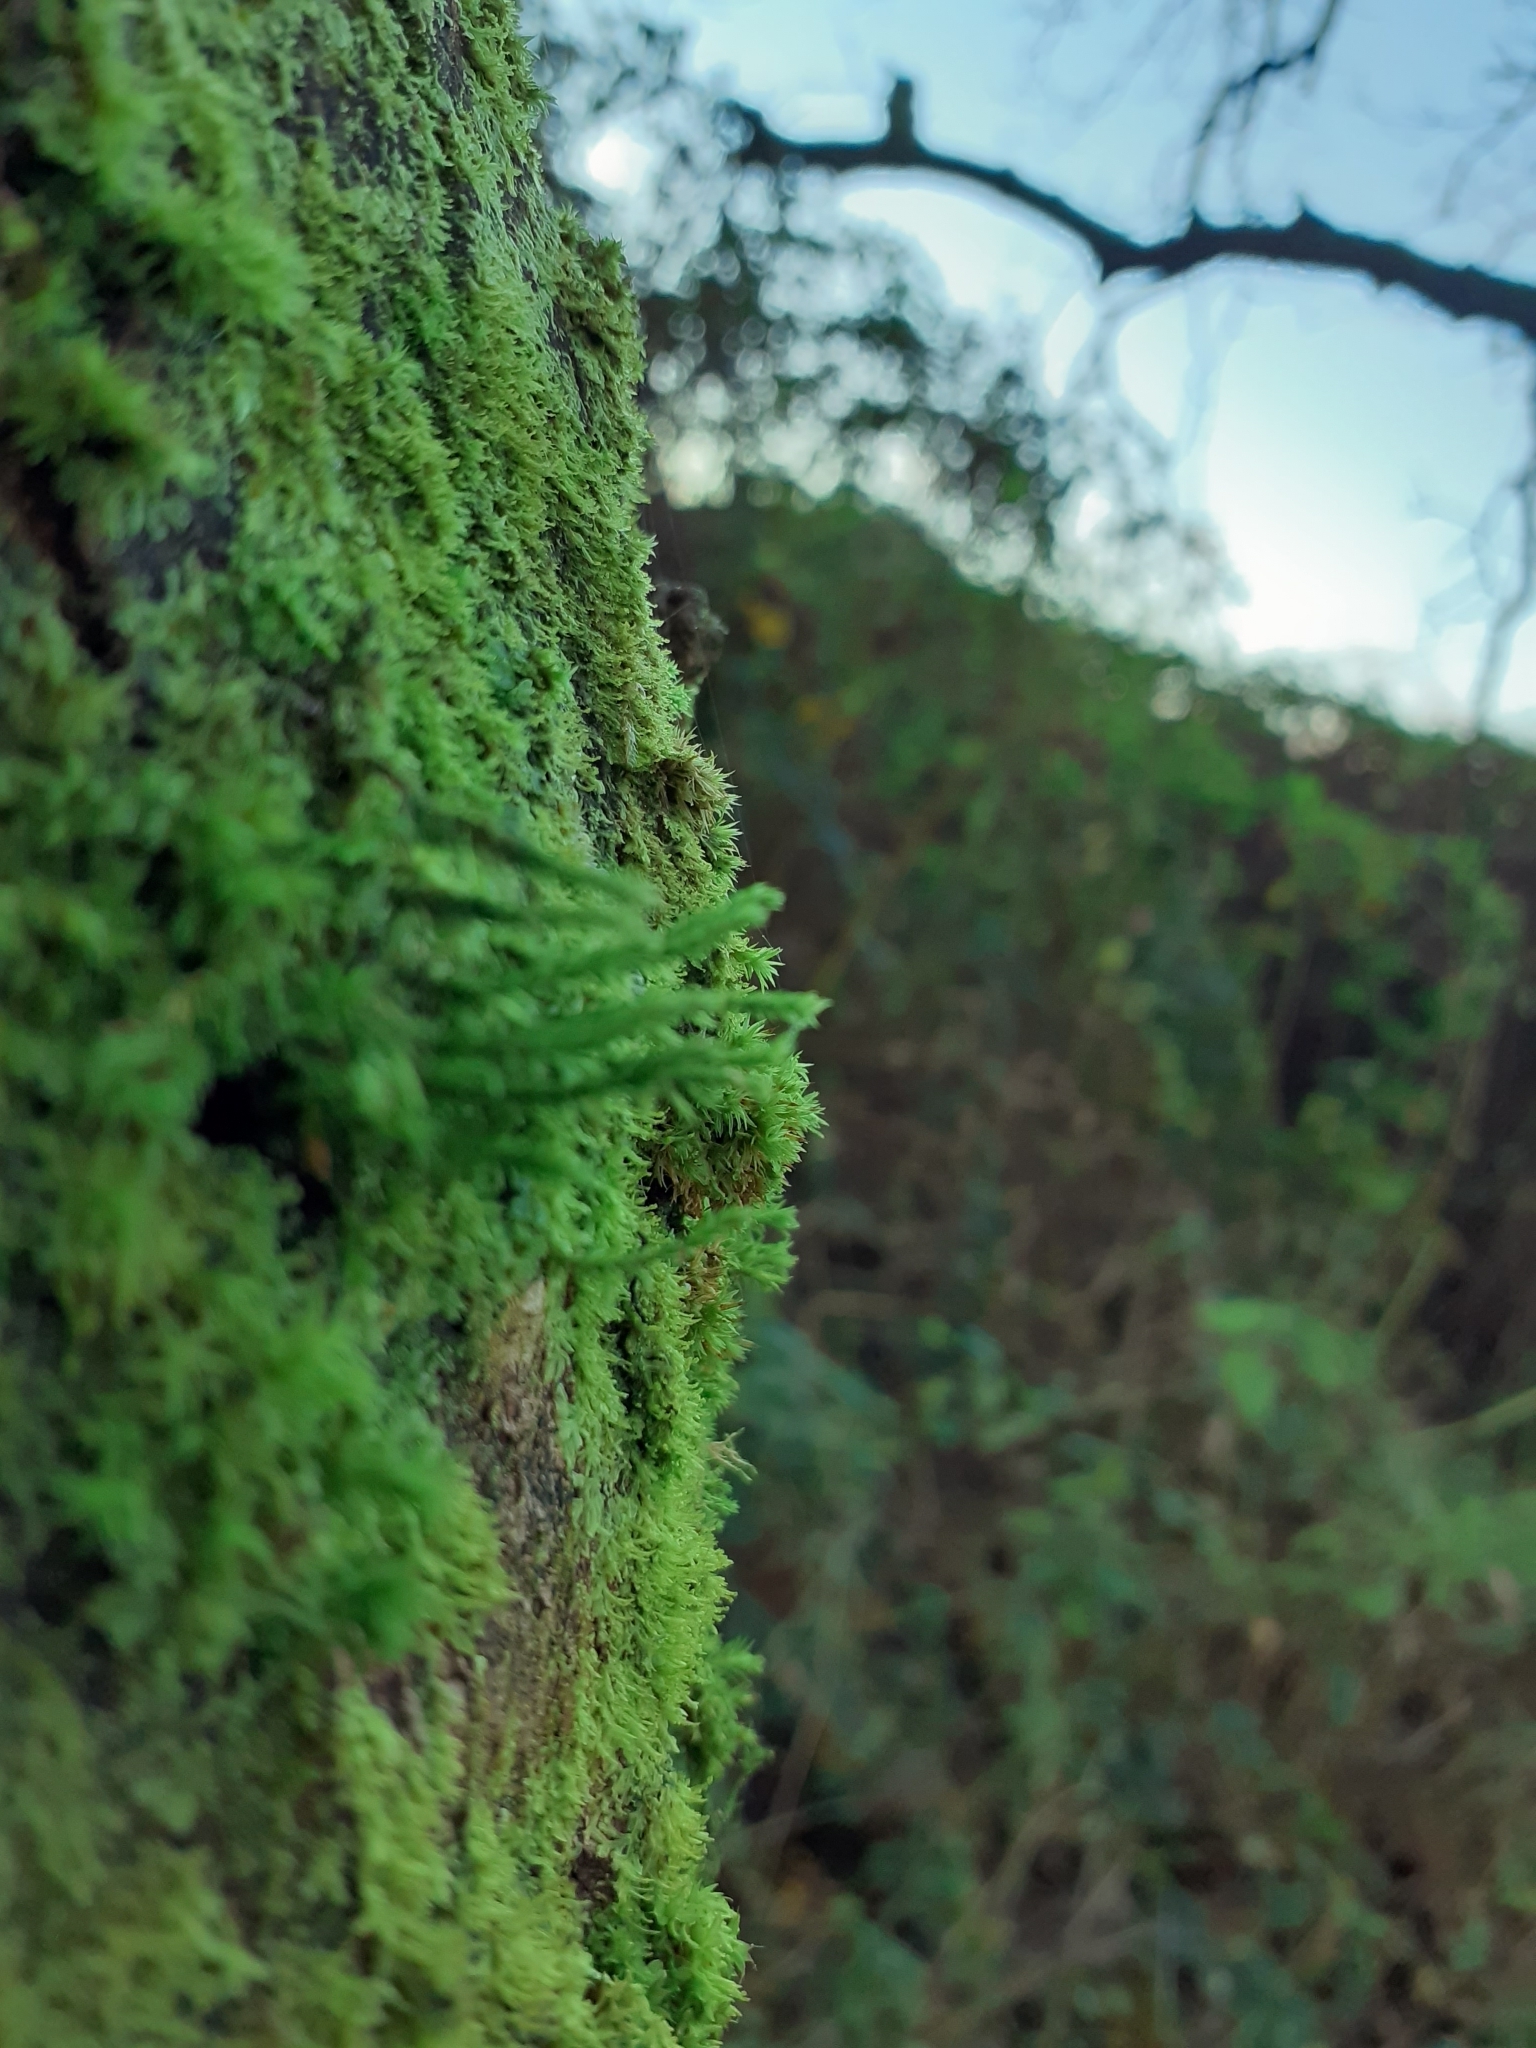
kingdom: Plantae
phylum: Bryophyta
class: Bryopsida
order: Hypnales
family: Cryphaeaceae
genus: Cryphaea
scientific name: Cryphaea heteromalla
